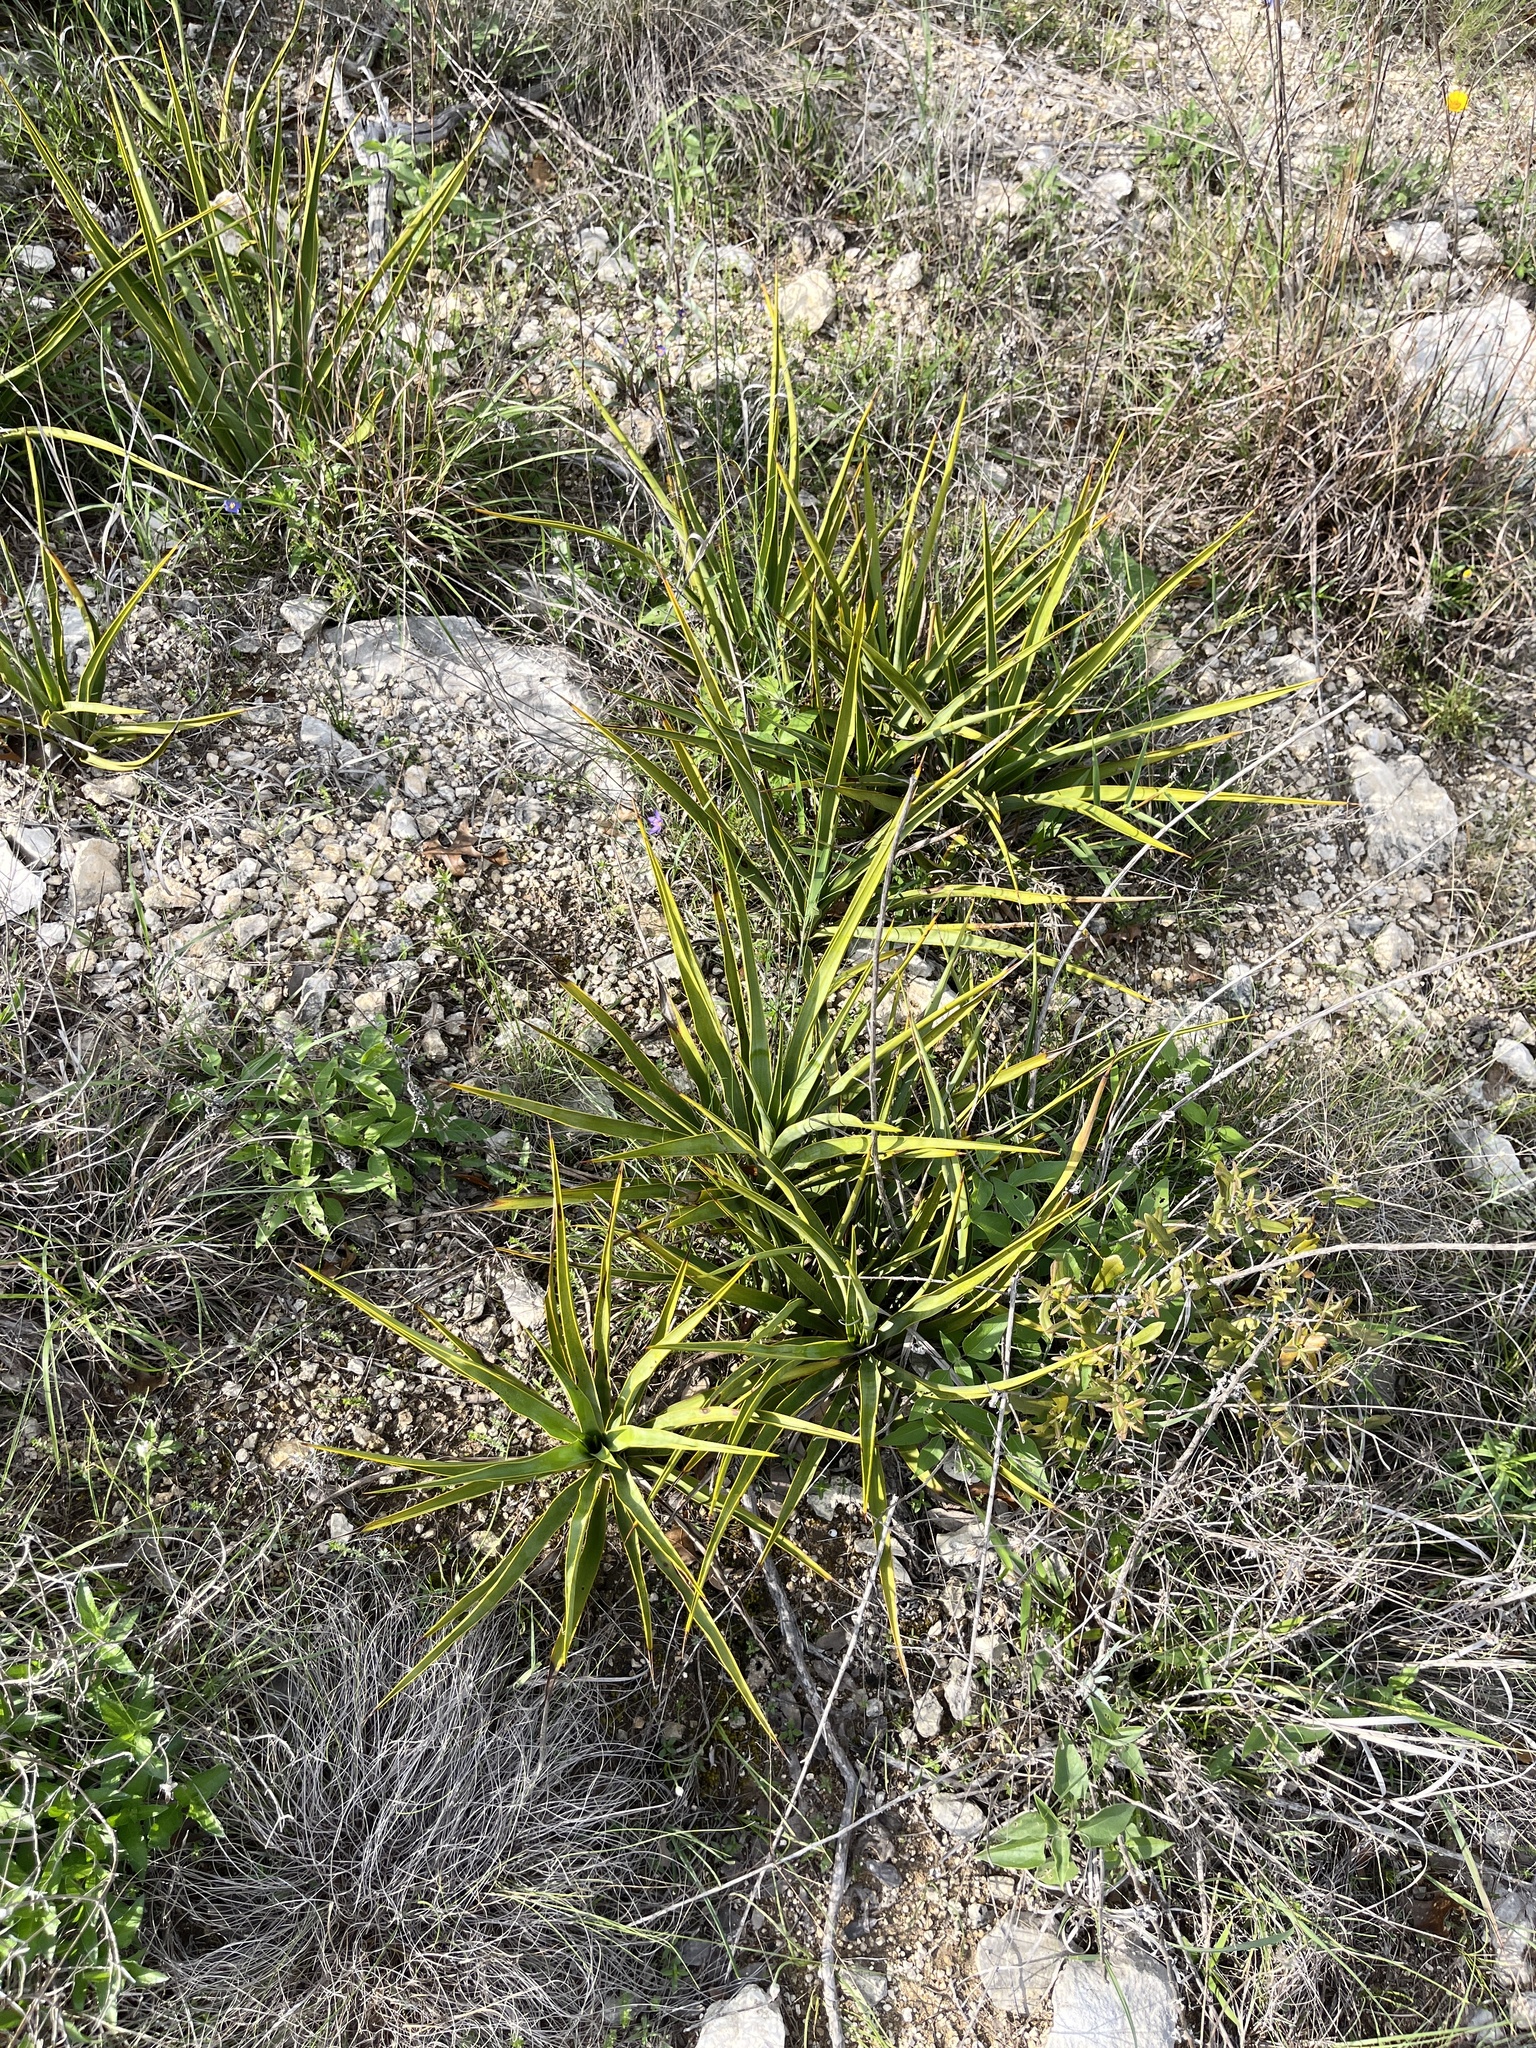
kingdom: Plantae
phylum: Tracheophyta
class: Liliopsida
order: Asparagales
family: Asparagaceae
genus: Yucca
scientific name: Yucca rupicola
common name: Twisted-leaf spanish-dagger
